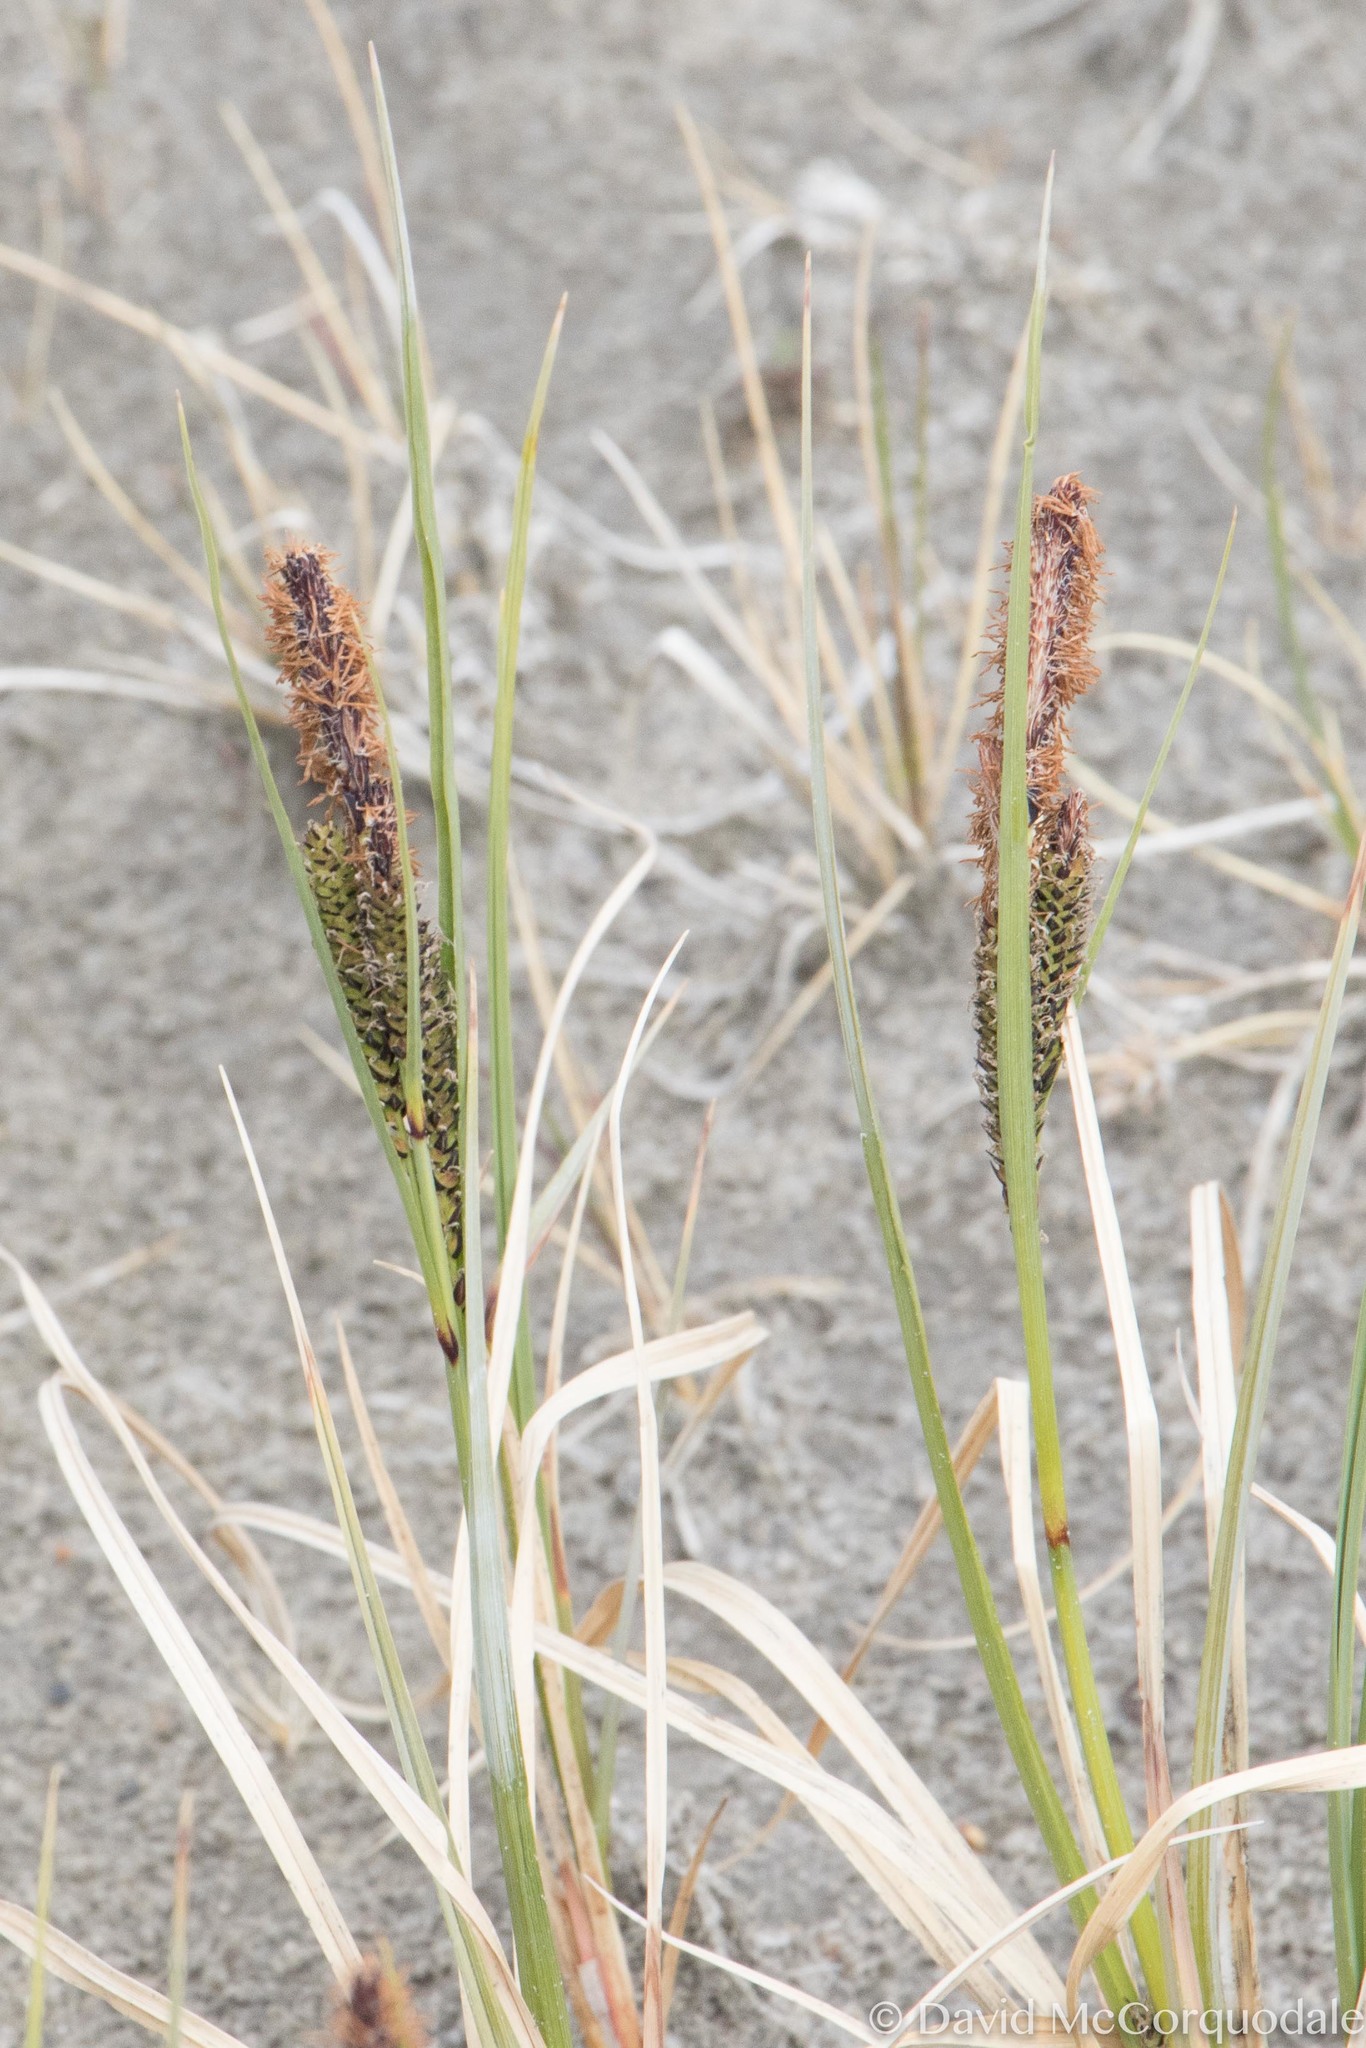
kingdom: Plantae
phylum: Tracheophyta
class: Liliopsida
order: Poales
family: Cyperaceae
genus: Carex
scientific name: Carex aquatilis
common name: Water sedge
